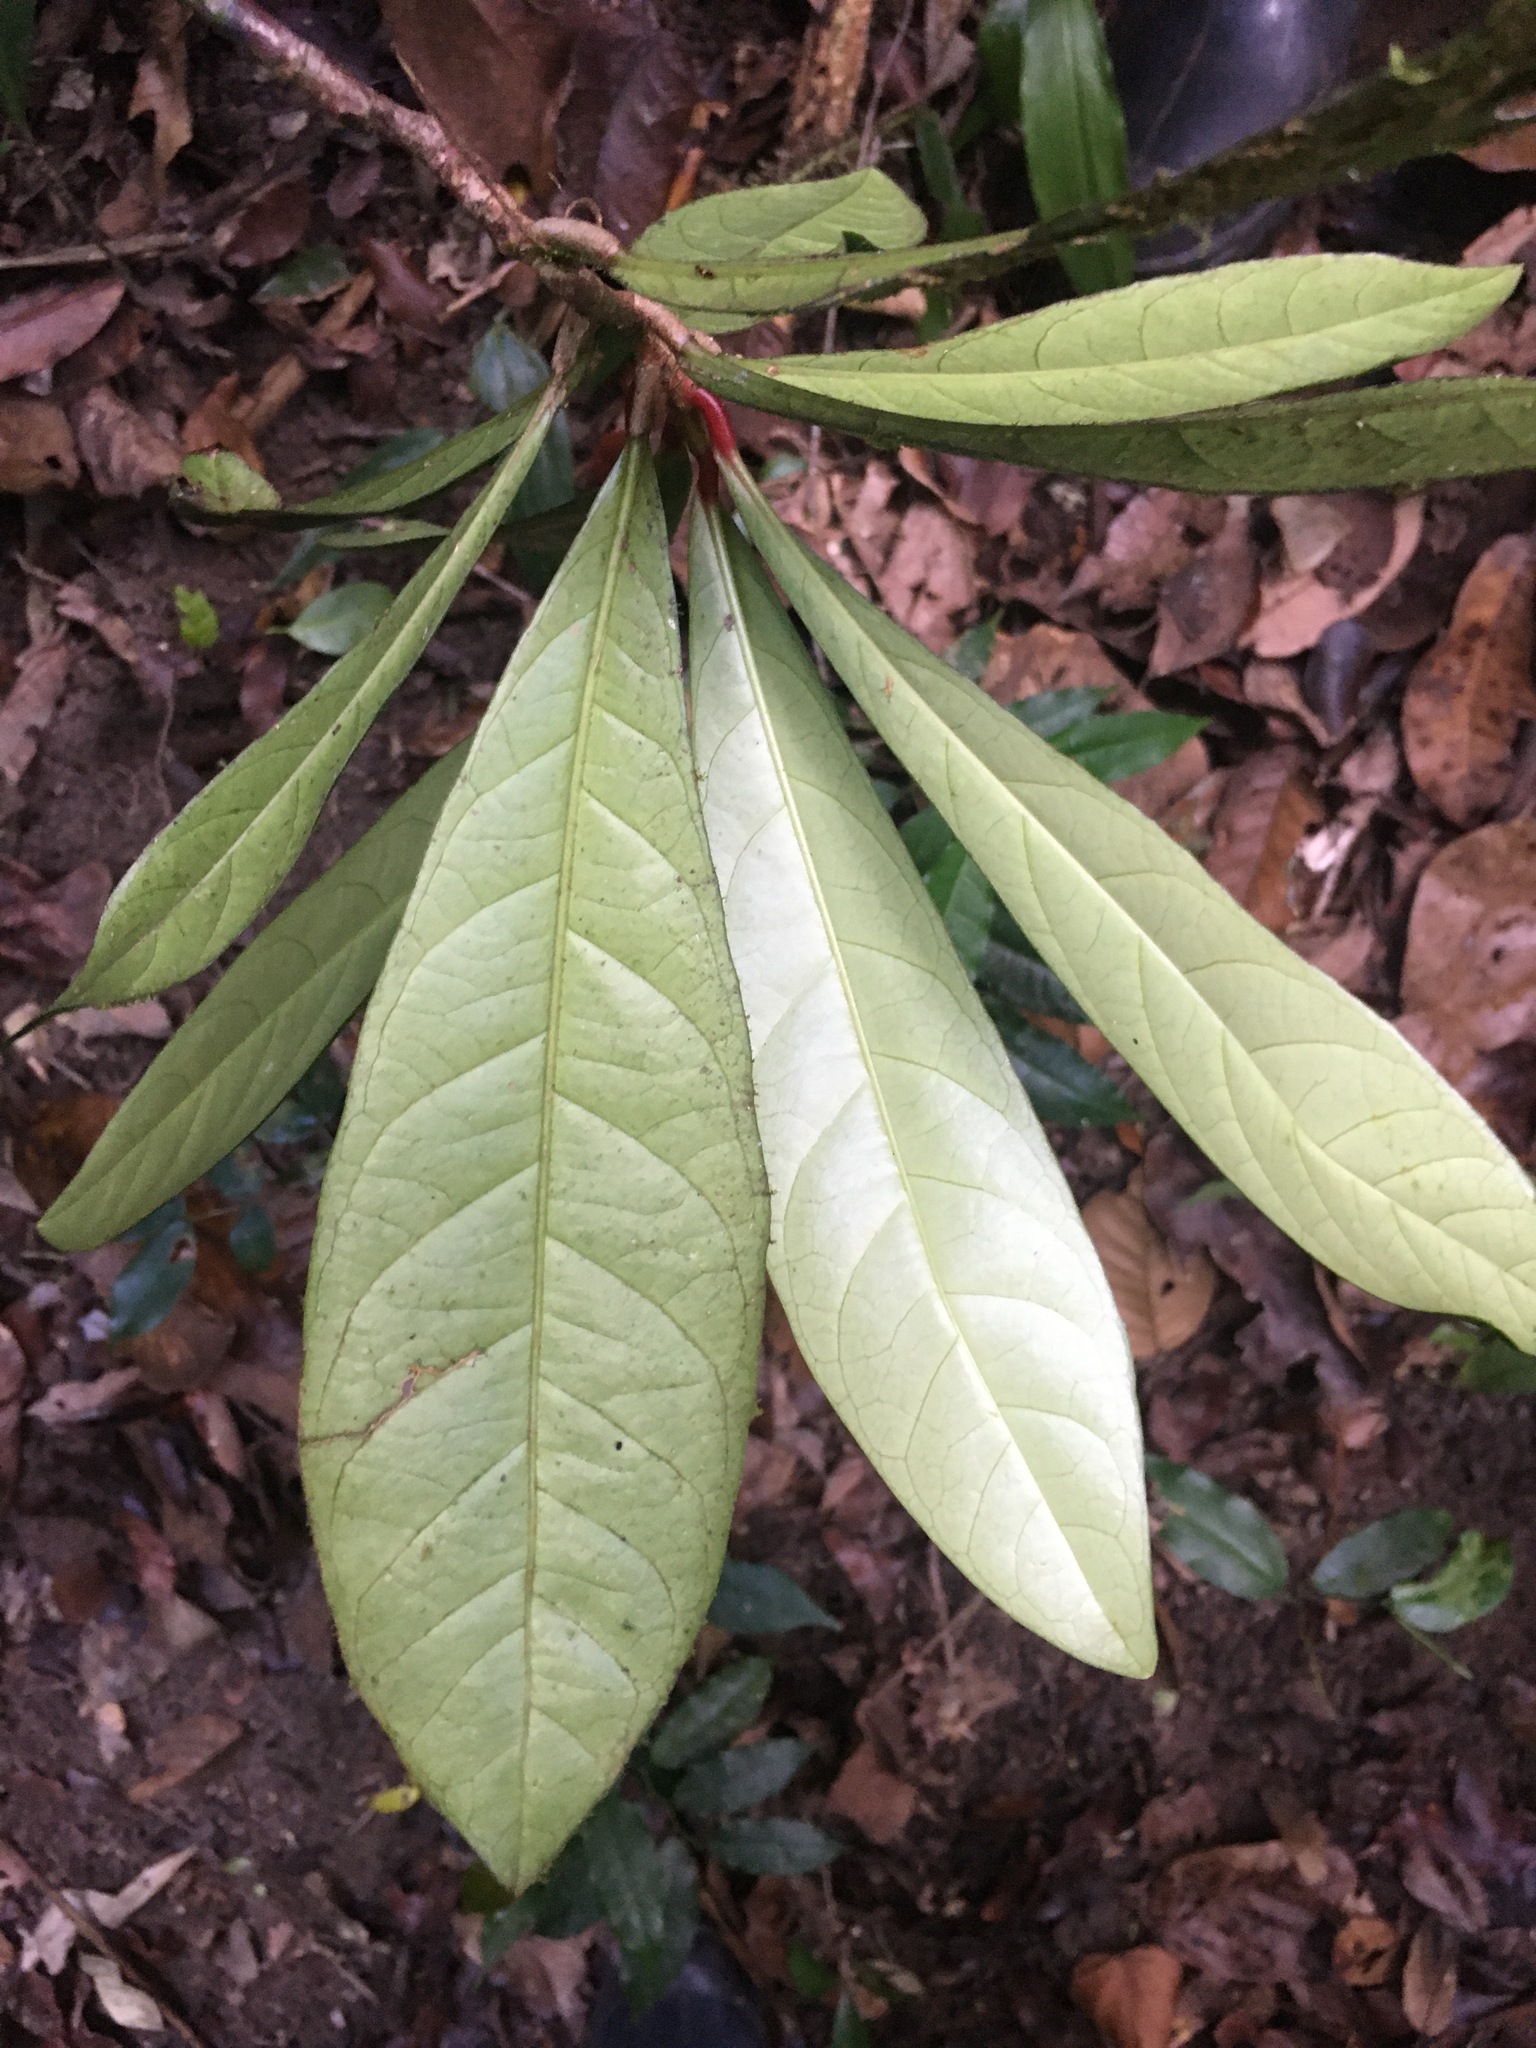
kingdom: Plantae
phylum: Tracheophyta
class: Magnoliopsida
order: Malpighiales
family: Violaceae
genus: Paypayrola
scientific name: Paypayrola blanchetiana
